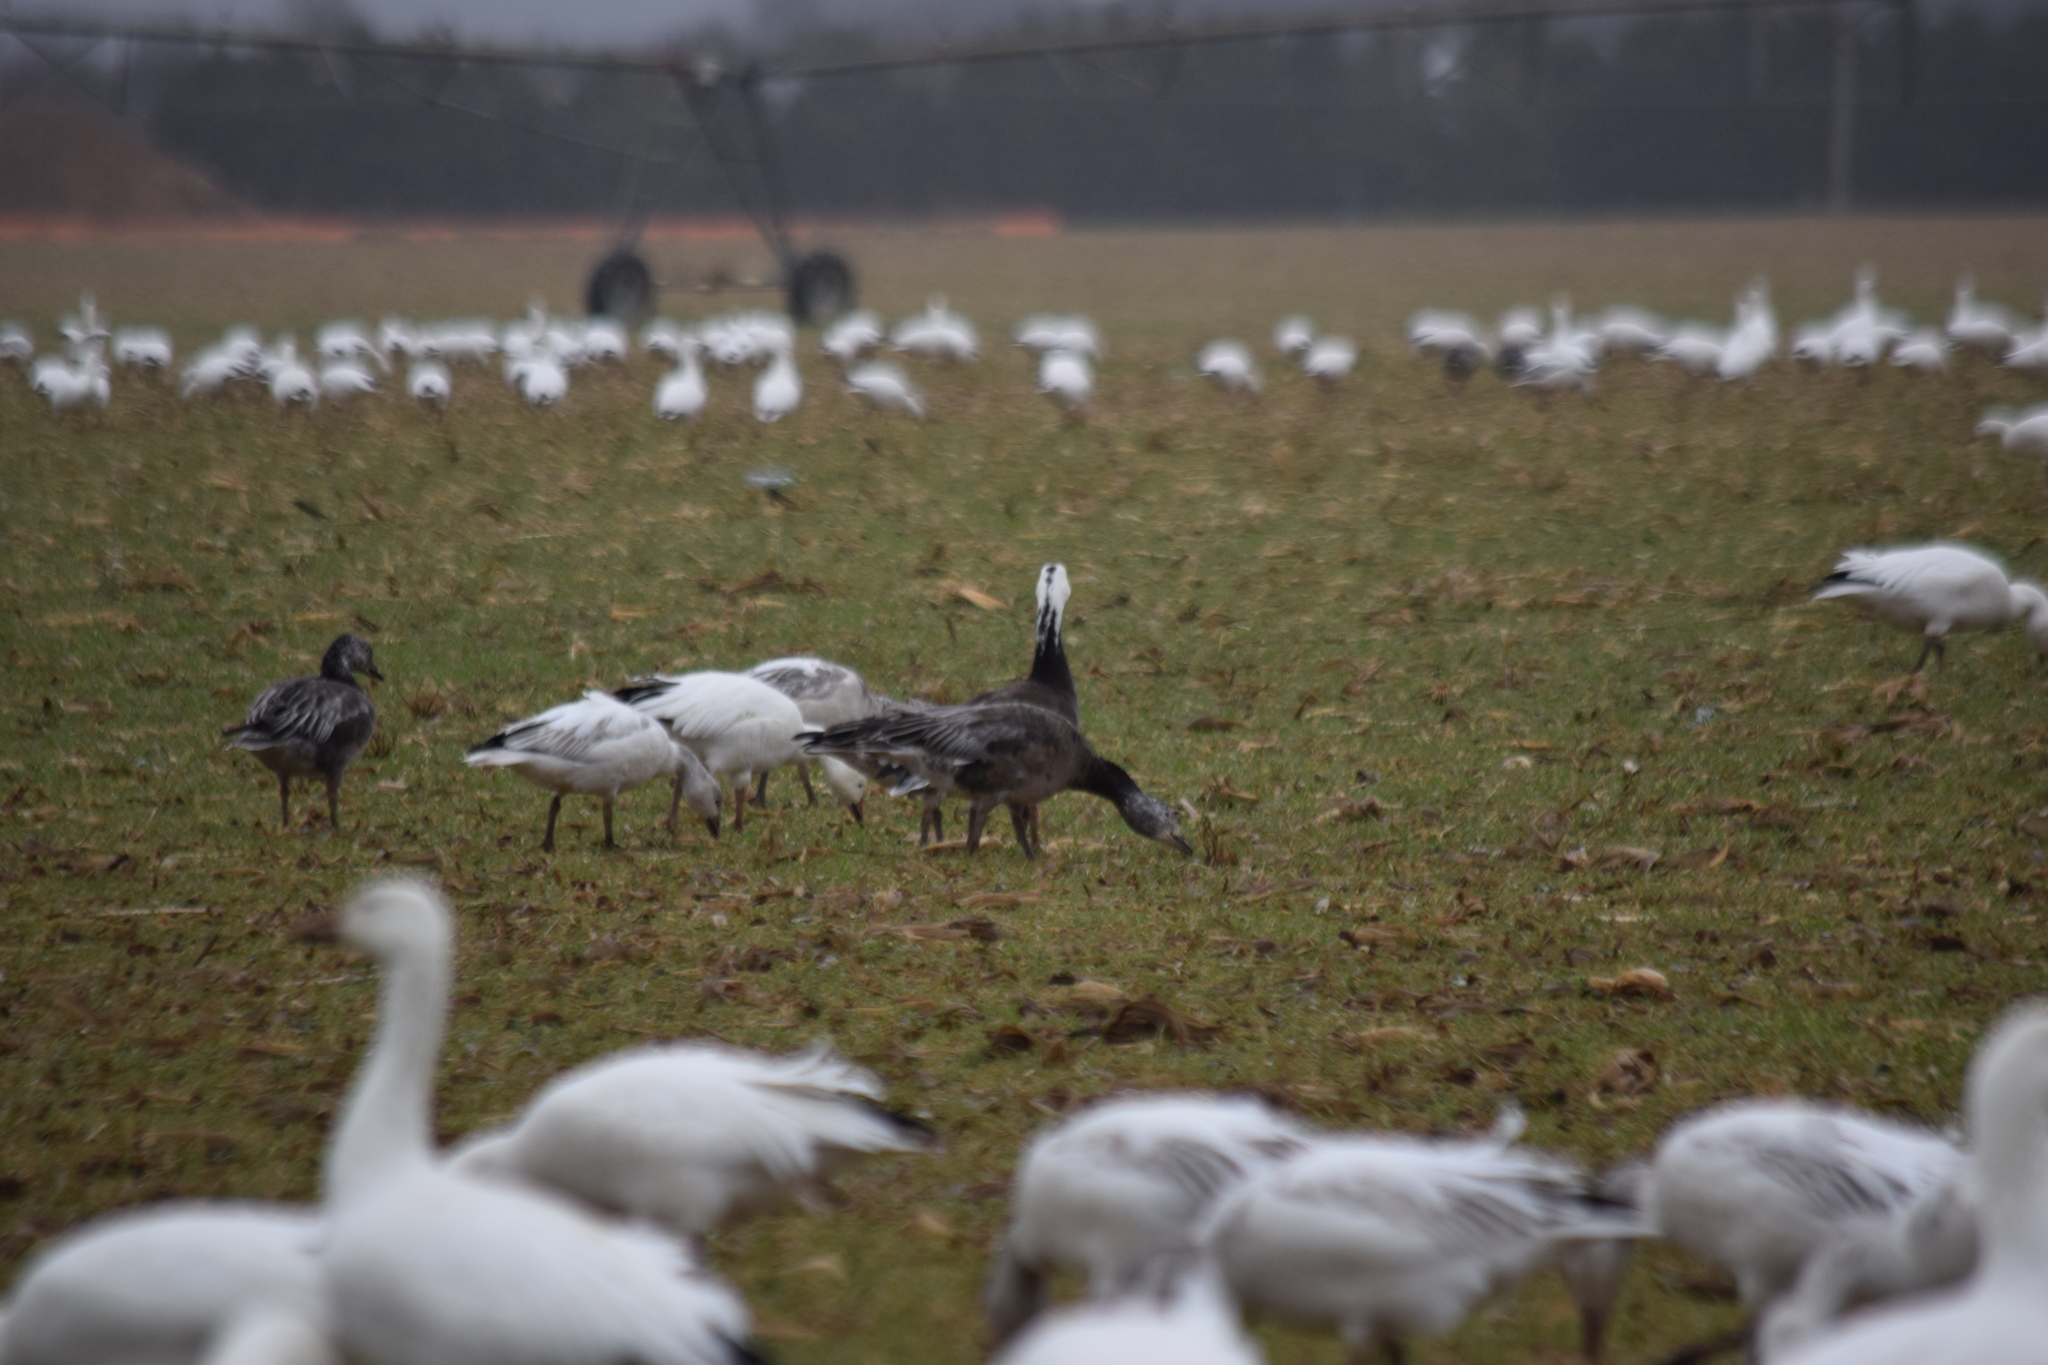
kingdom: Animalia
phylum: Chordata
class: Aves
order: Anseriformes
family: Anatidae
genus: Anser
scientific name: Anser caerulescens
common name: Snow goose
